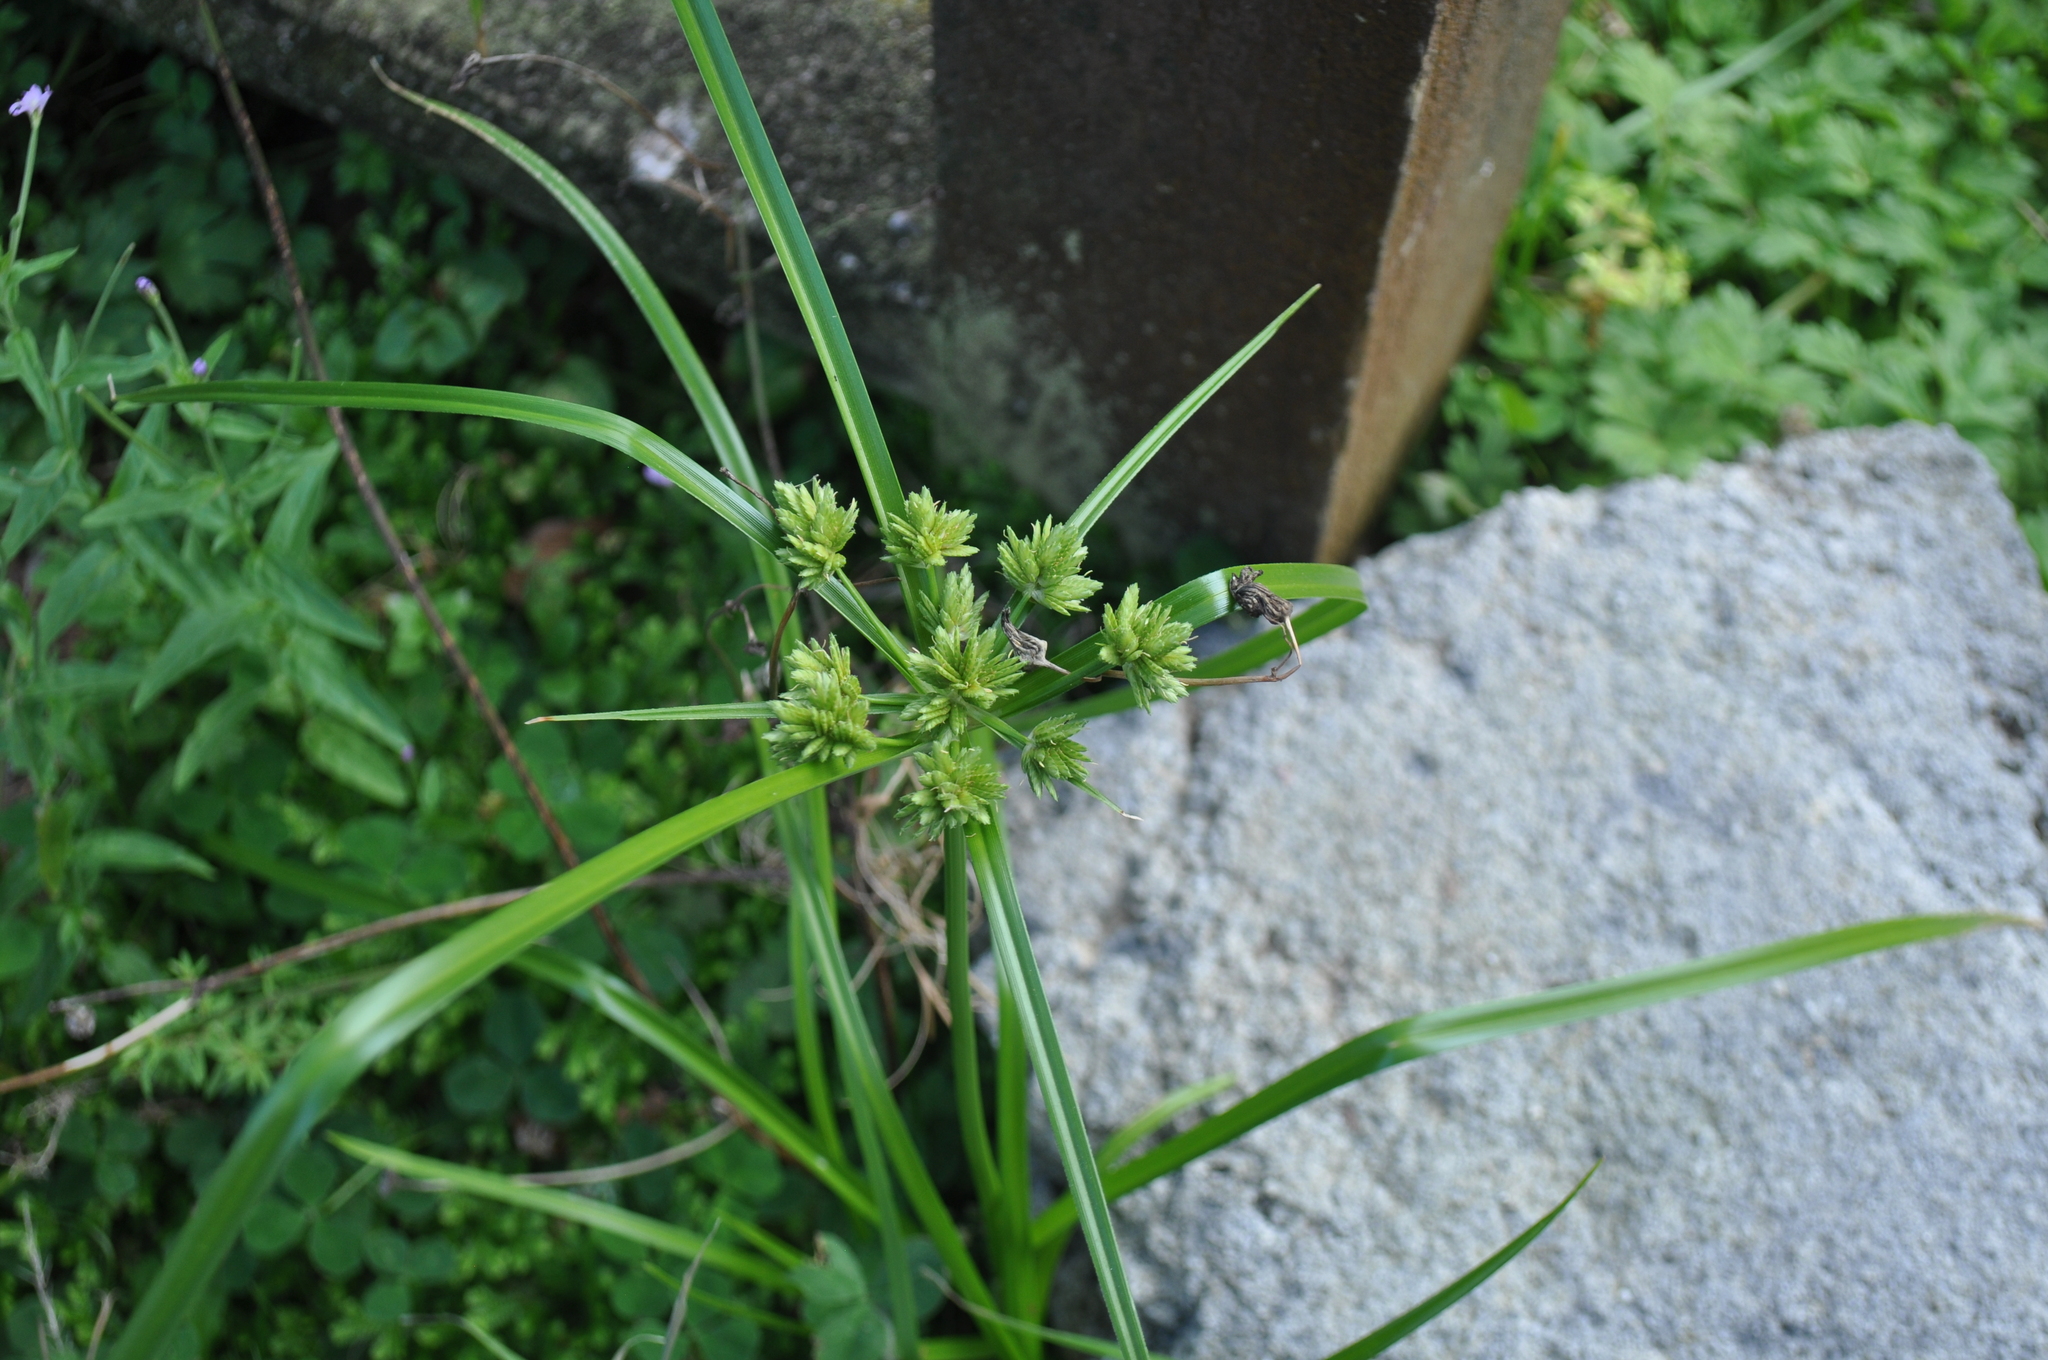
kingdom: Plantae
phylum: Tracheophyta
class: Liliopsida
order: Poales
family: Cyperaceae
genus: Cyperus
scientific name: Cyperus eragrostis
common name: Tall flatsedge
